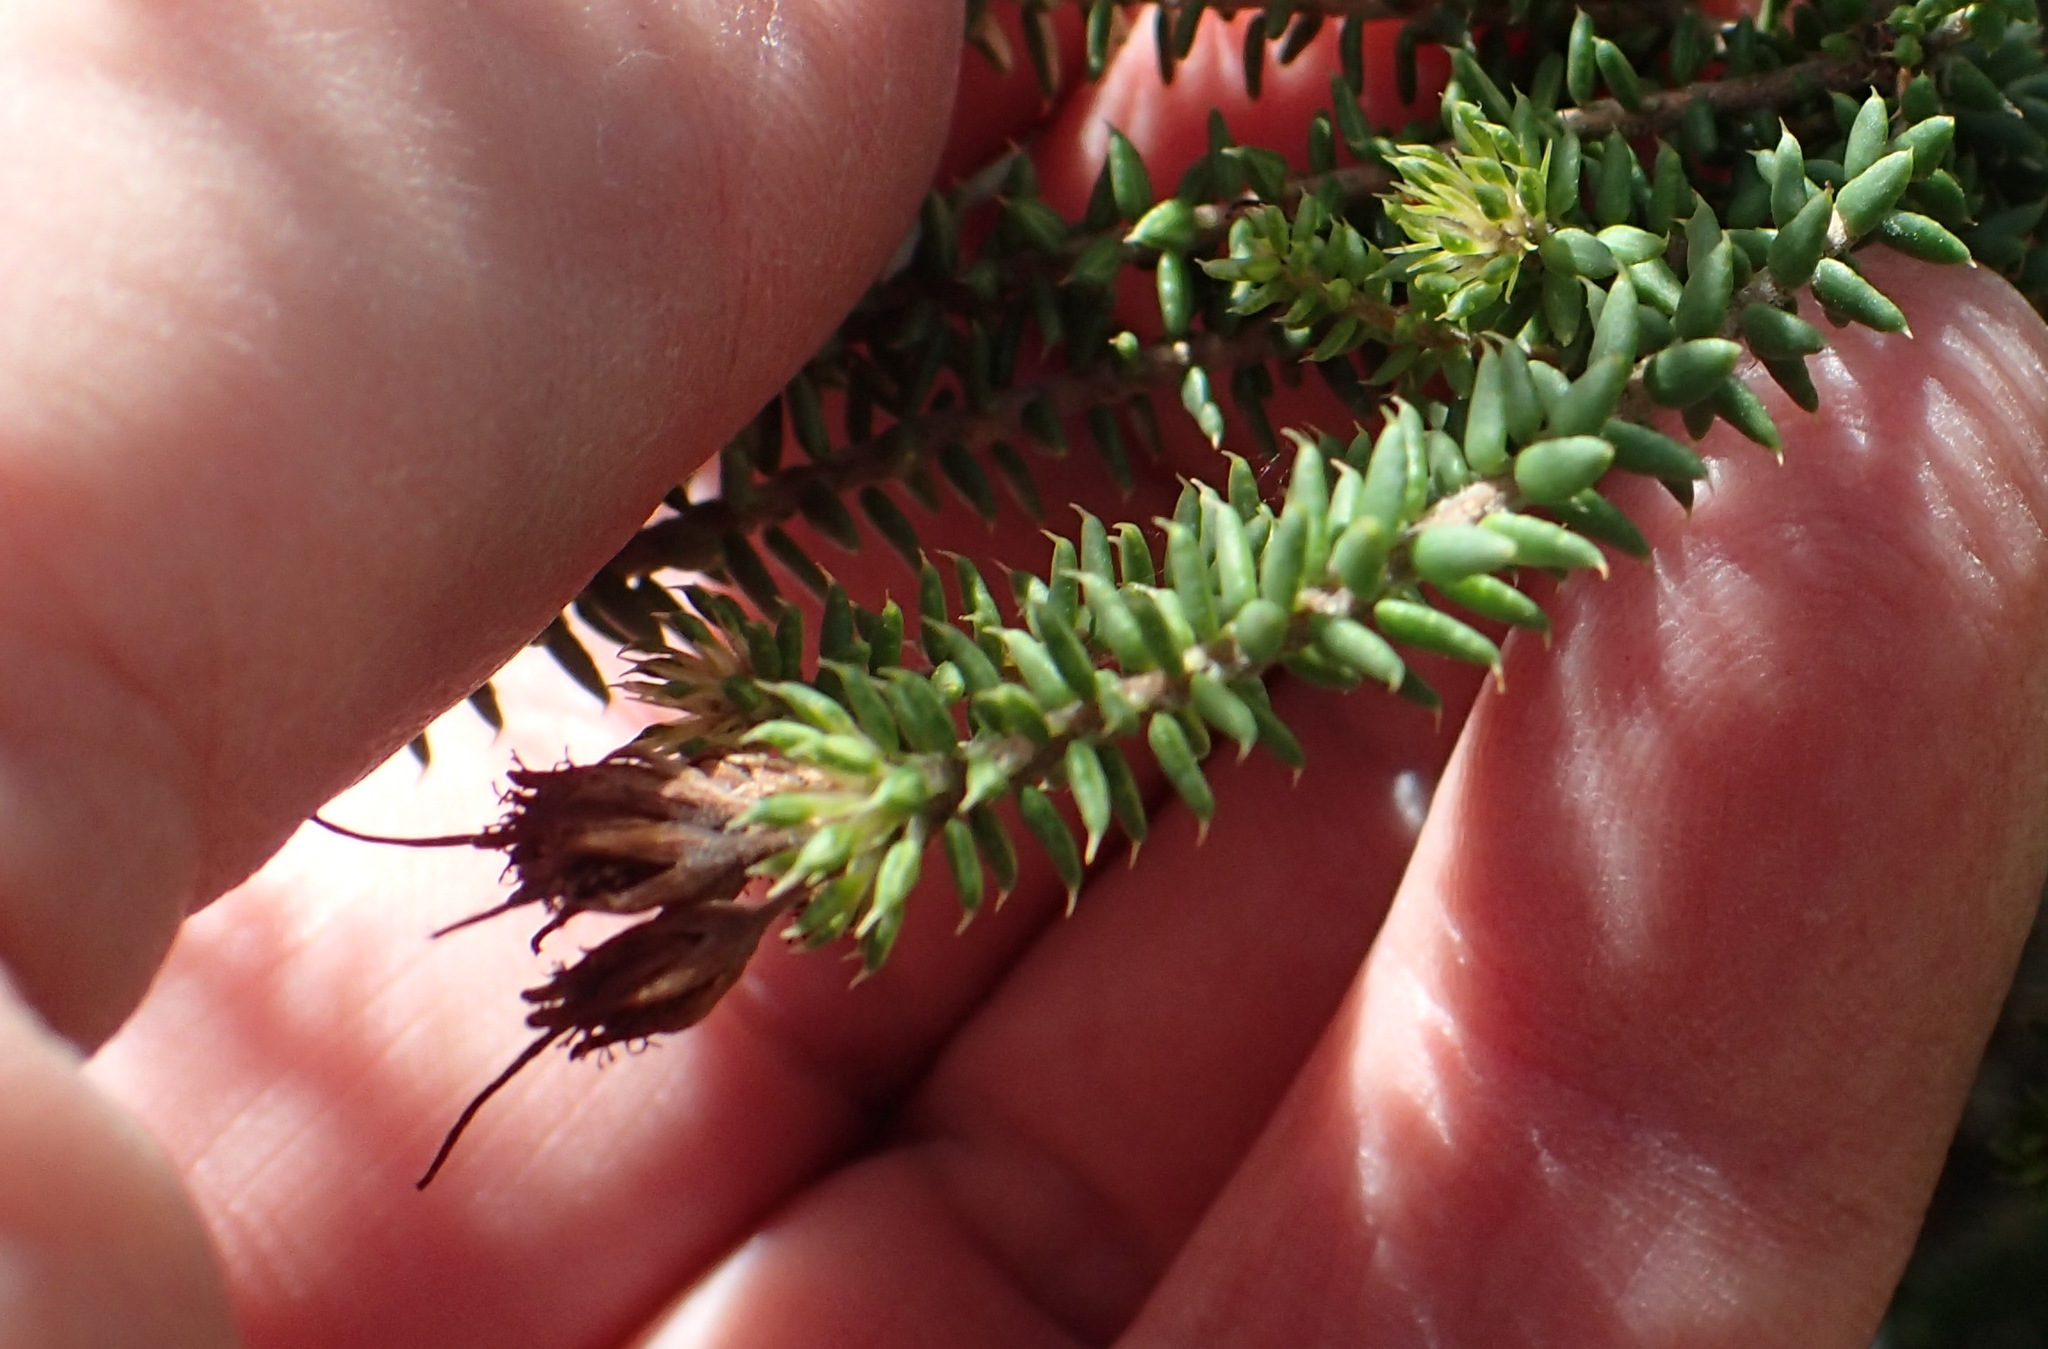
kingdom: Plantae
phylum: Tracheophyta
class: Magnoliopsida
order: Sapindales
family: Rutaceae
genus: Agathosma
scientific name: Agathosma apiculata
